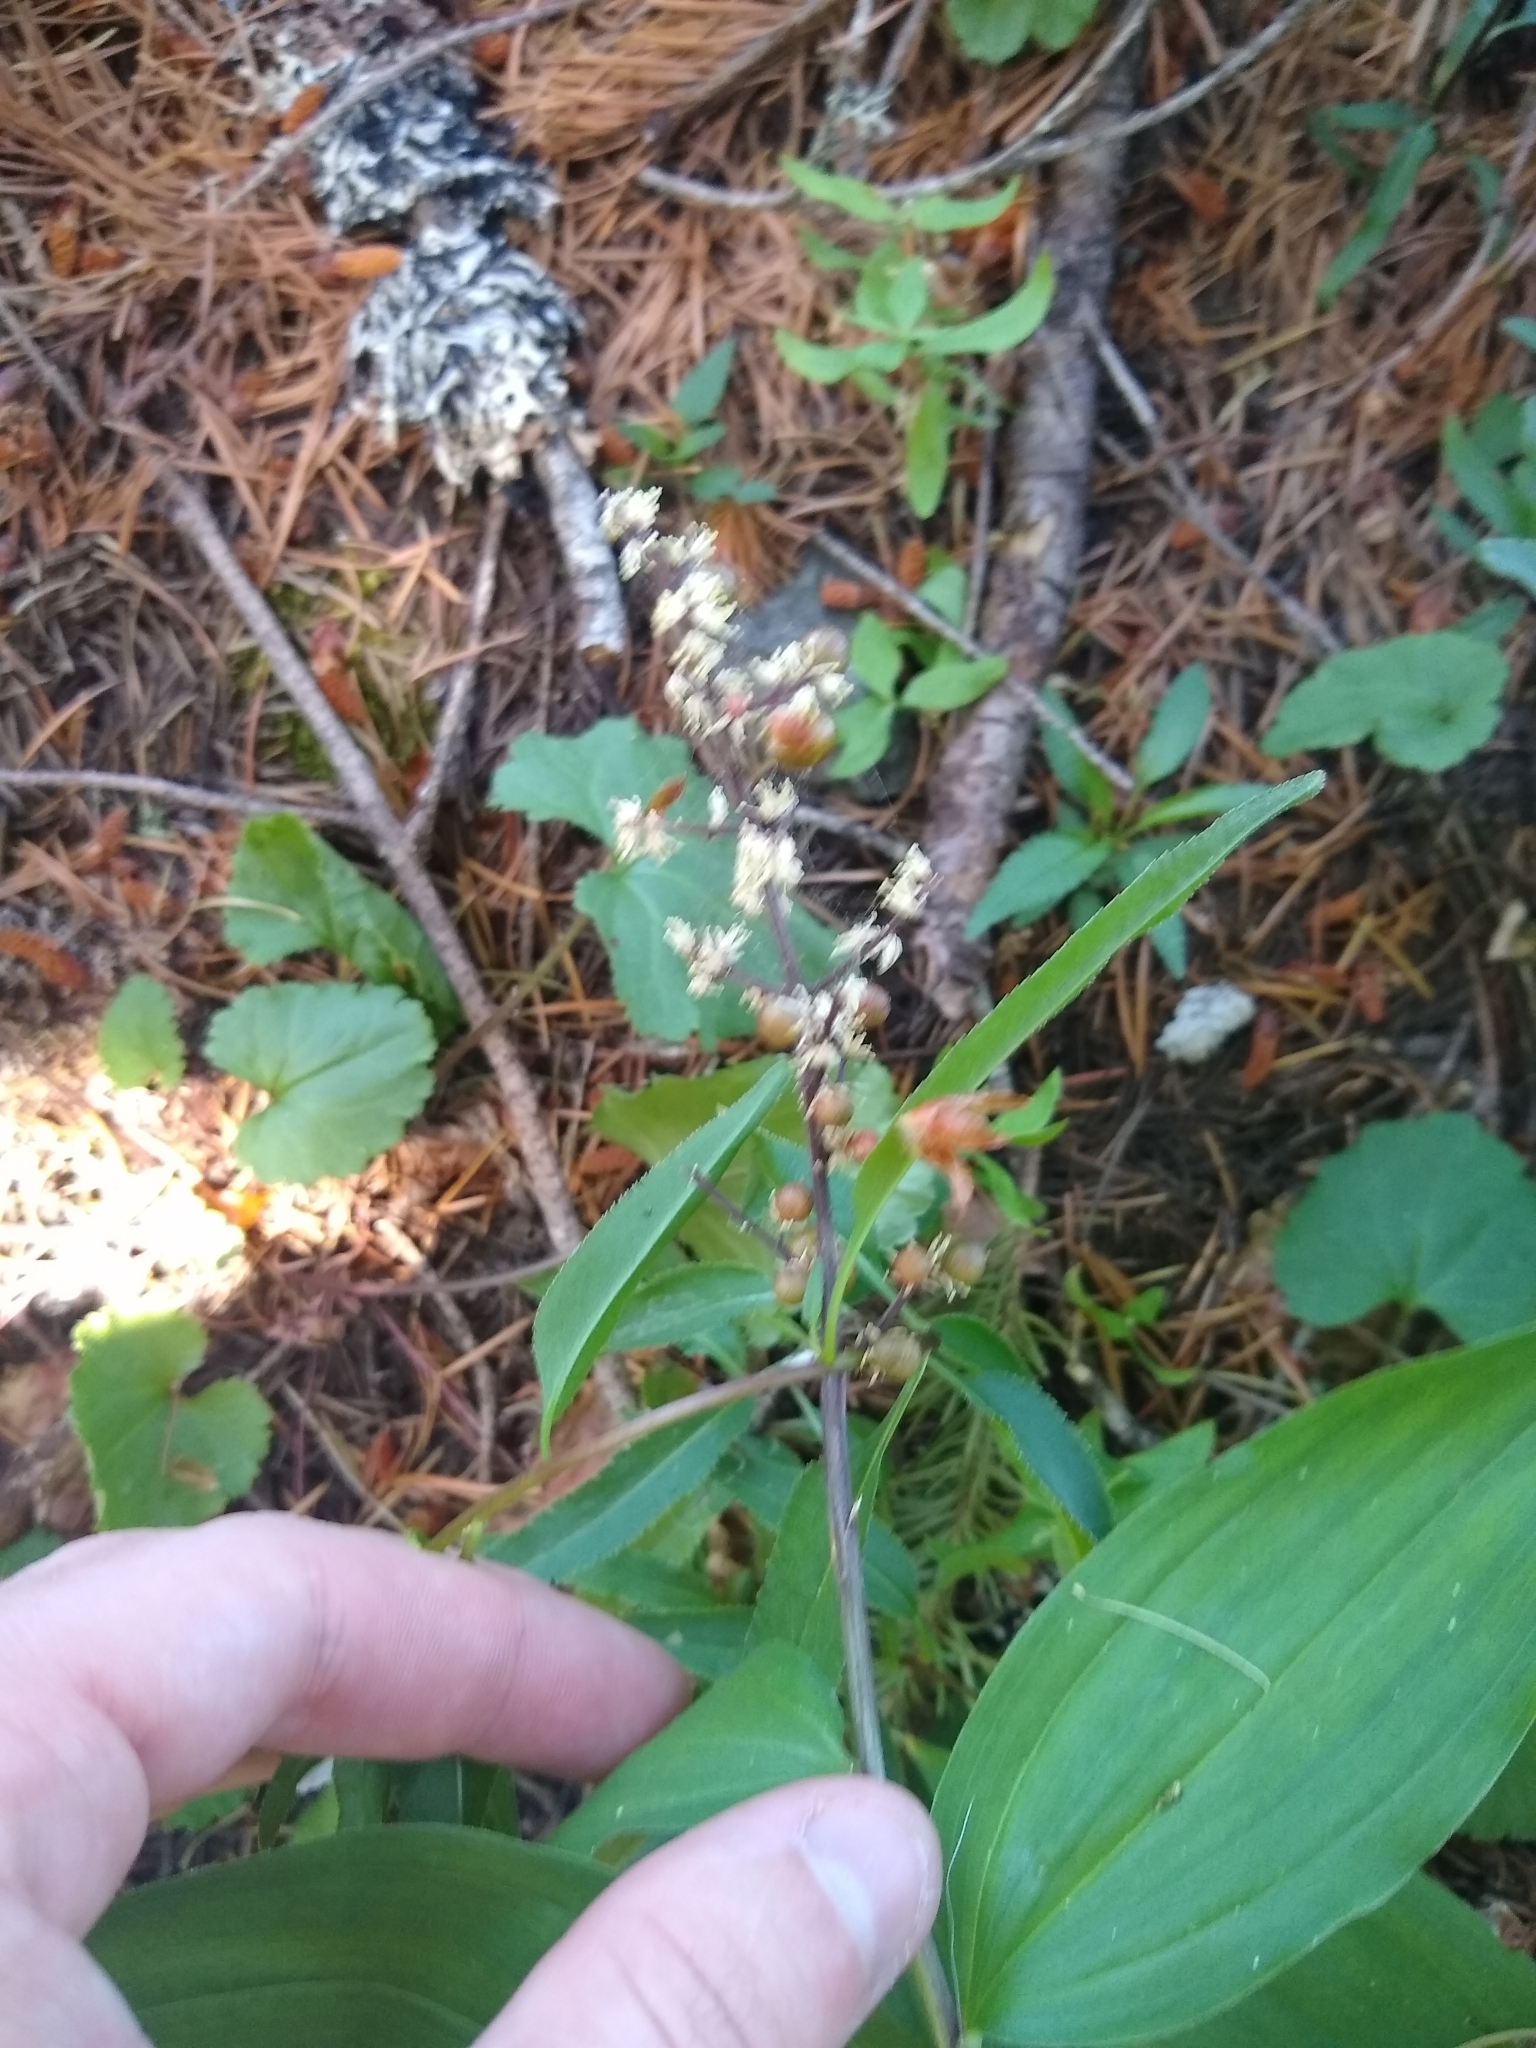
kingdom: Plantae
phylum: Tracheophyta
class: Liliopsida
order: Asparagales
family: Asparagaceae
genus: Maianthemum
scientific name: Maianthemum racemosum
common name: False spikenard
